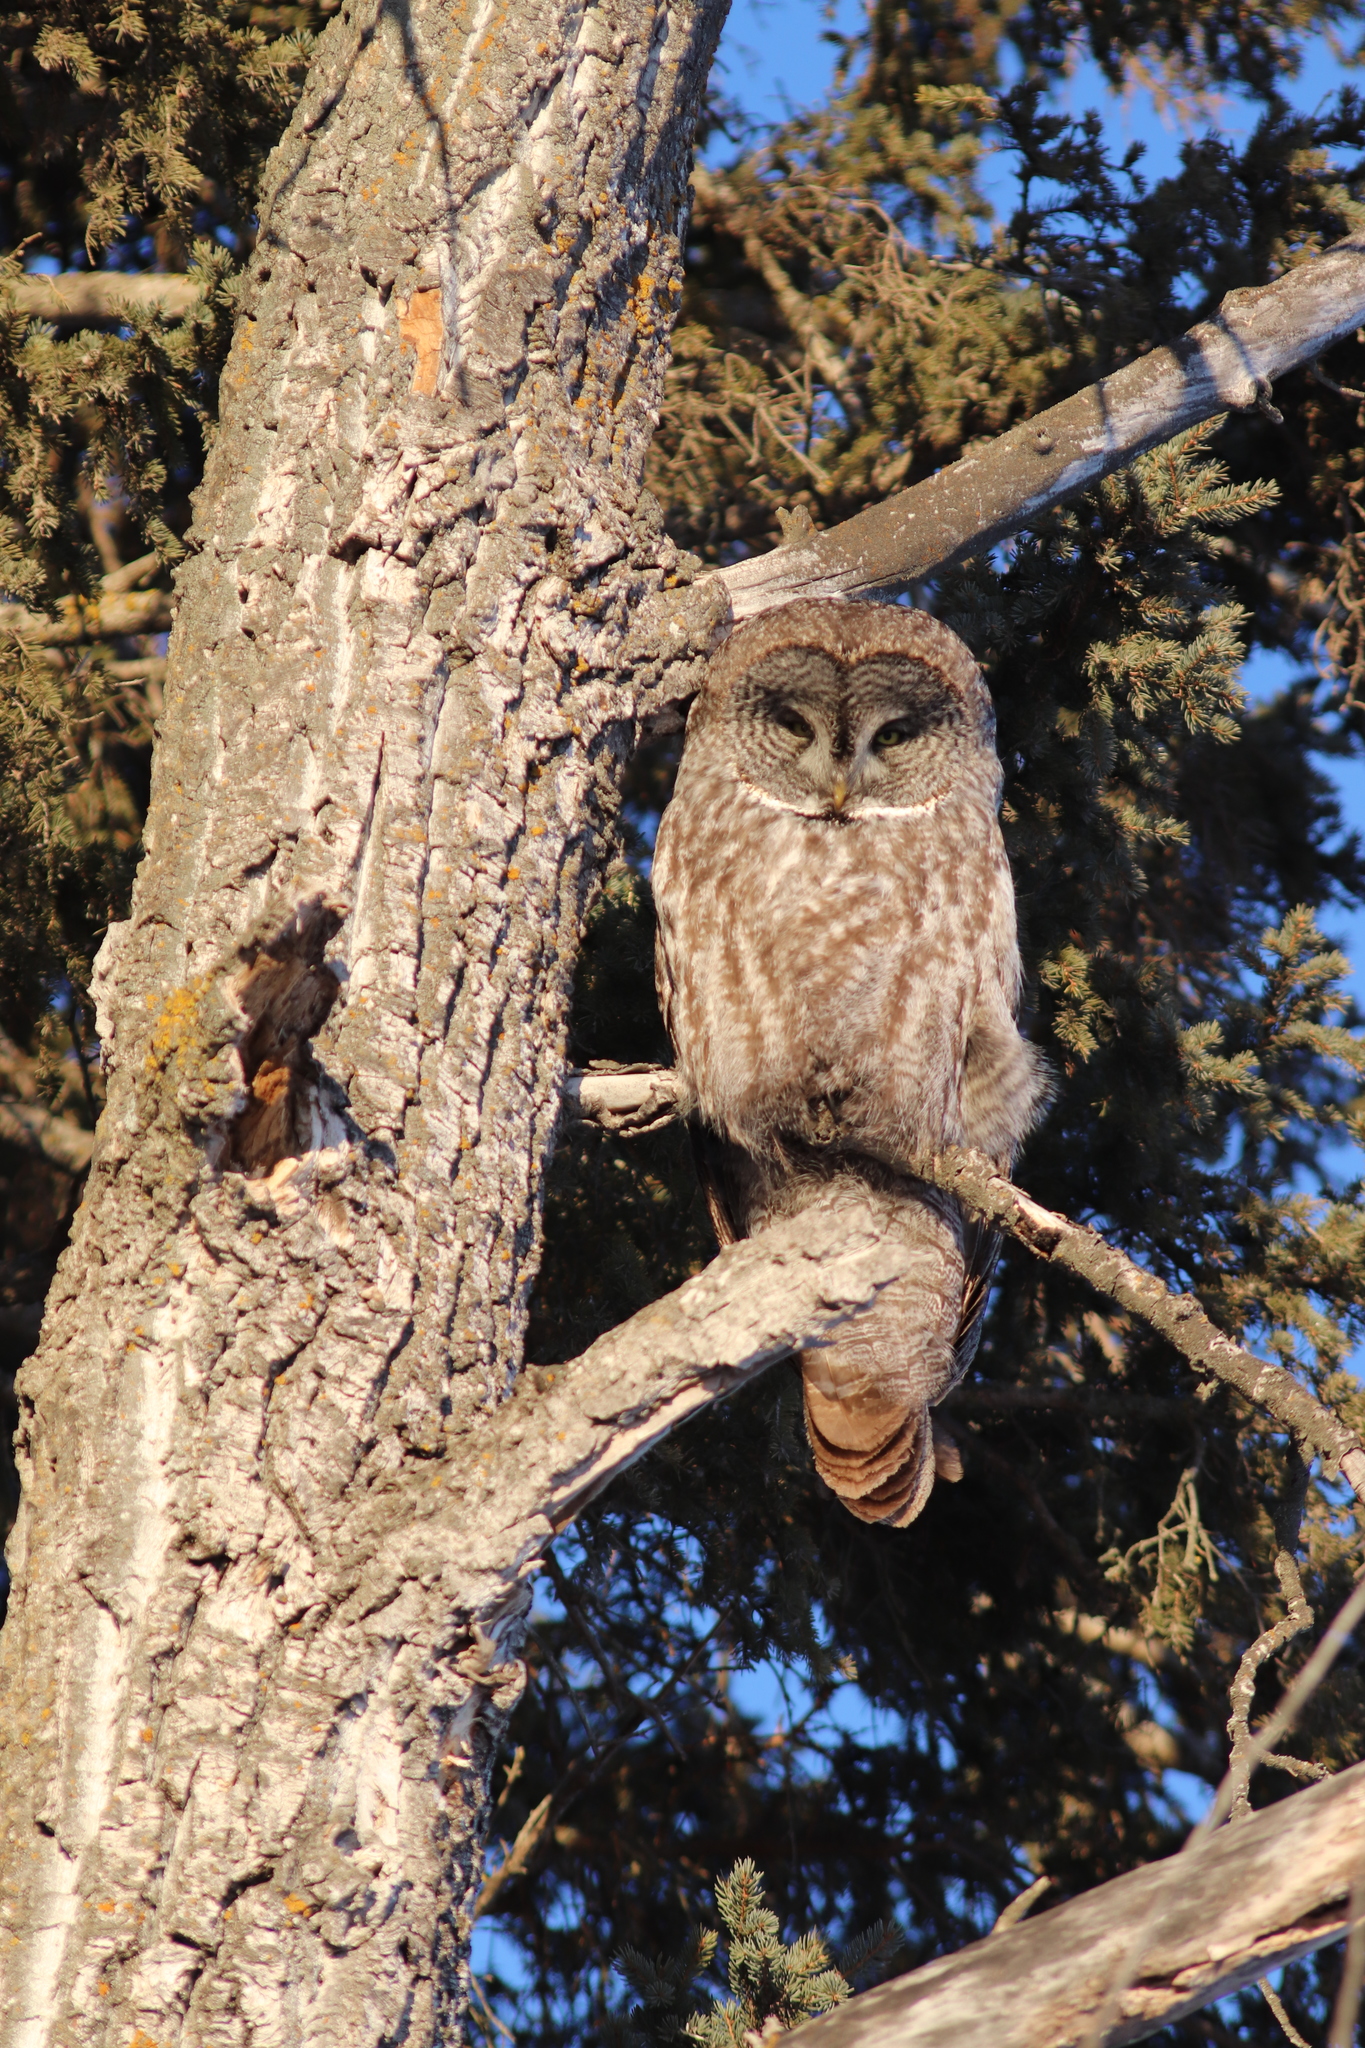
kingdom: Animalia
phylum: Chordata
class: Aves
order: Strigiformes
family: Strigidae
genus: Strix
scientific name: Strix nebulosa
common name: Great grey owl
